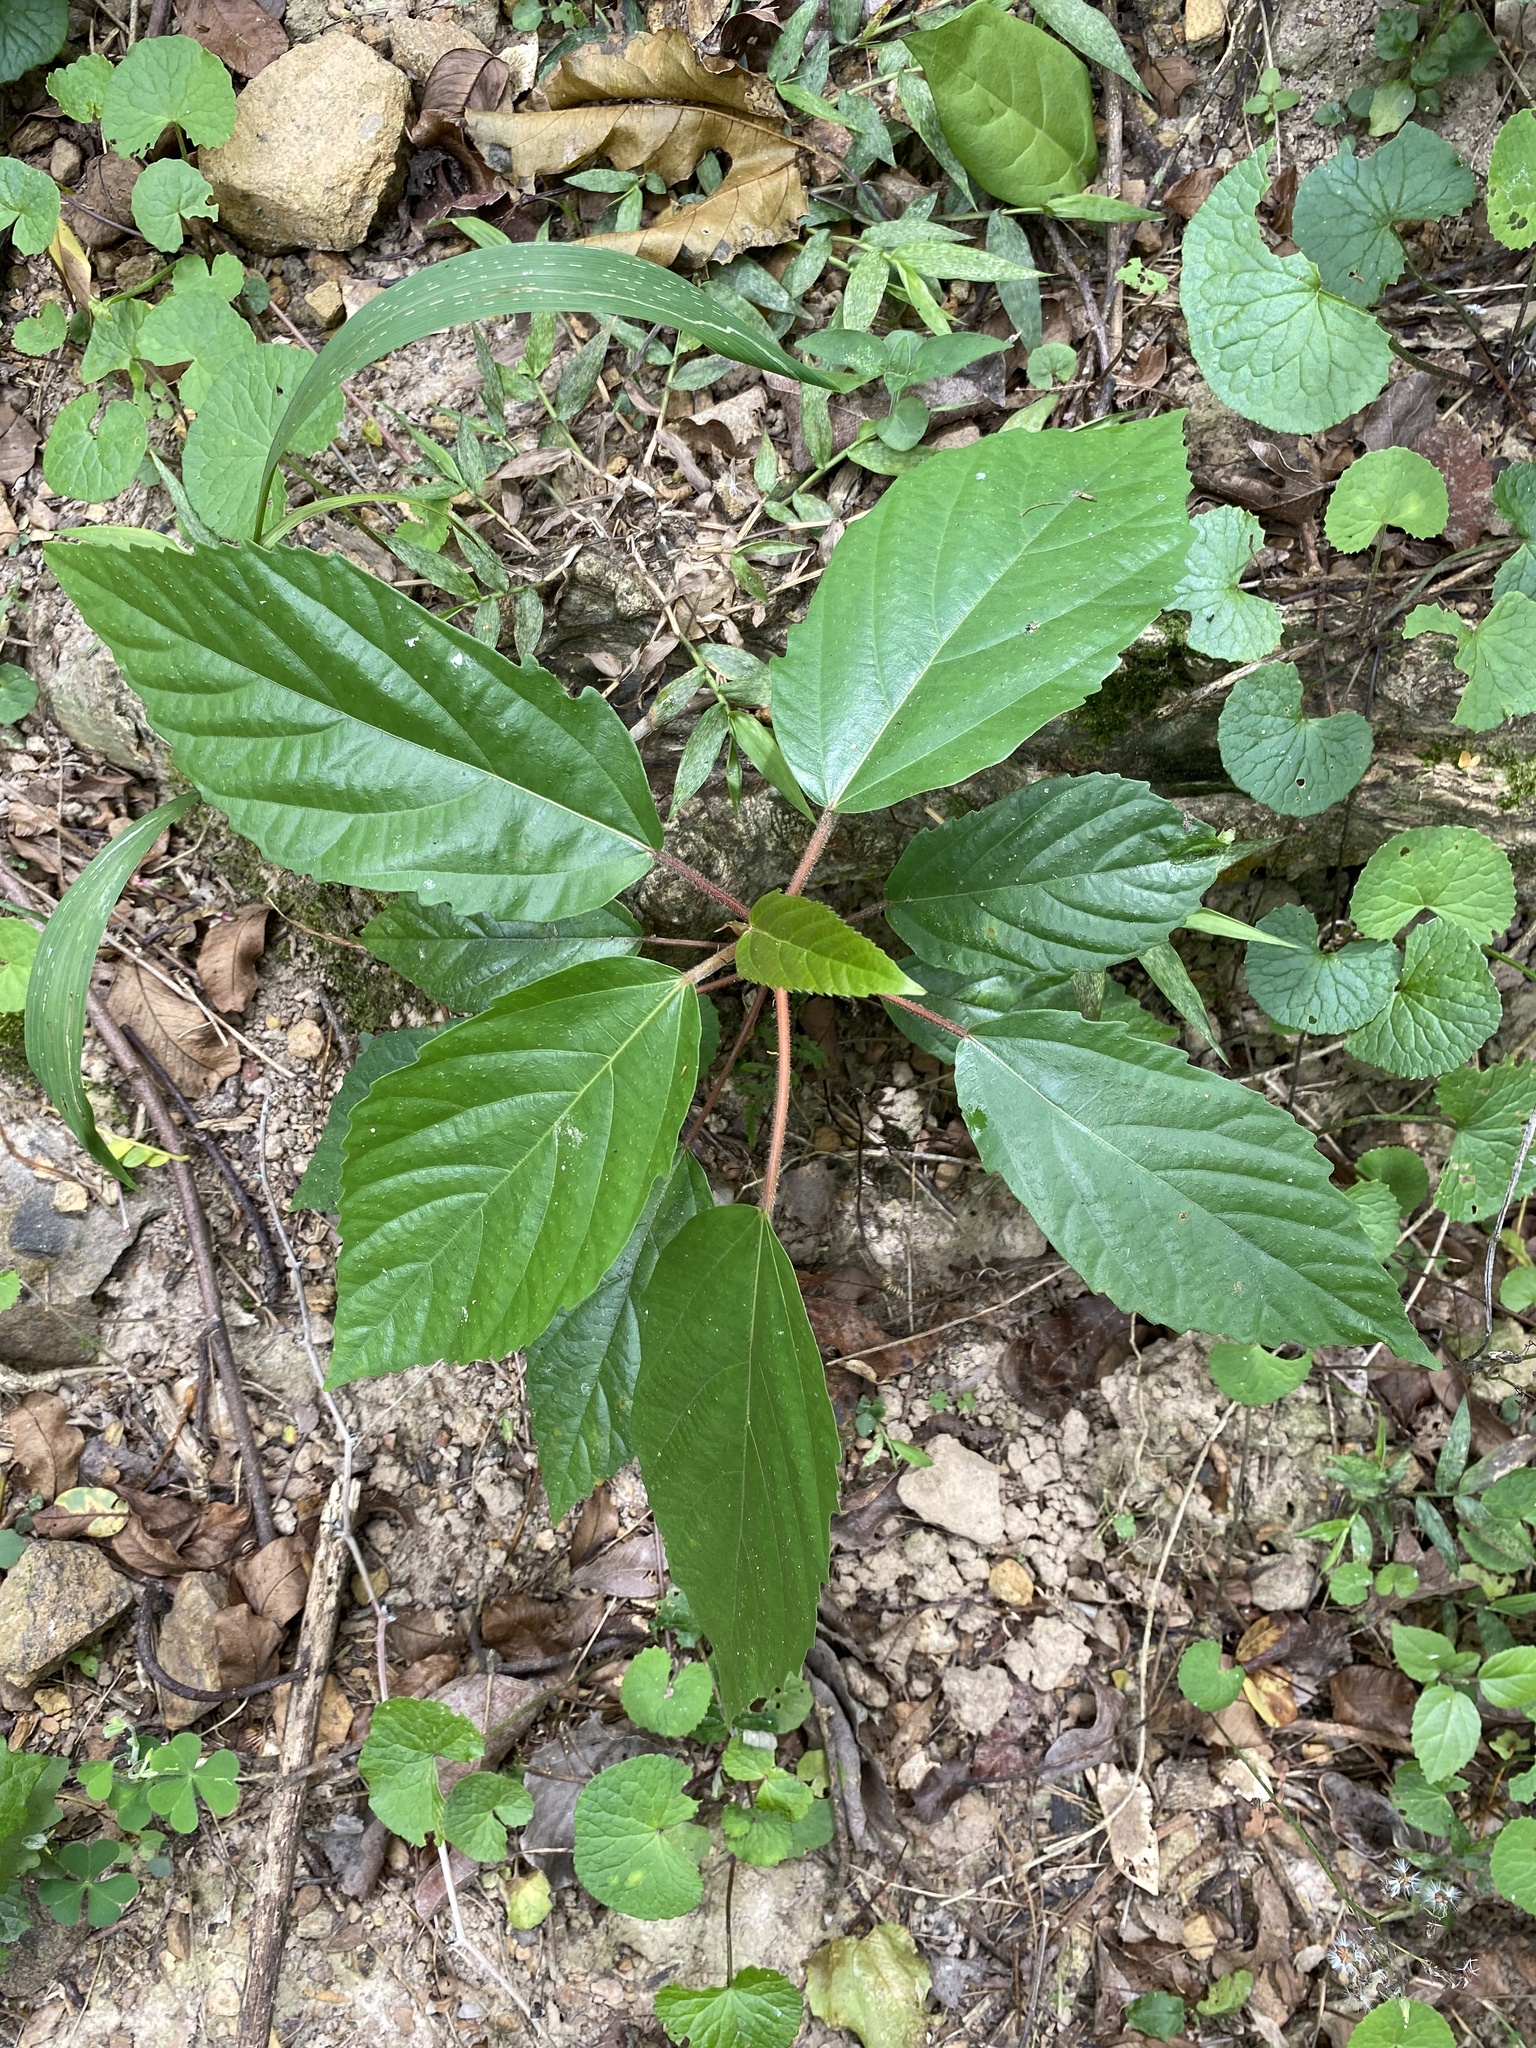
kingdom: Plantae
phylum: Tracheophyta
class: Magnoliopsida
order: Rosales
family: Moraceae
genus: Ficus
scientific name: Ficus sur
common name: Cape fig
